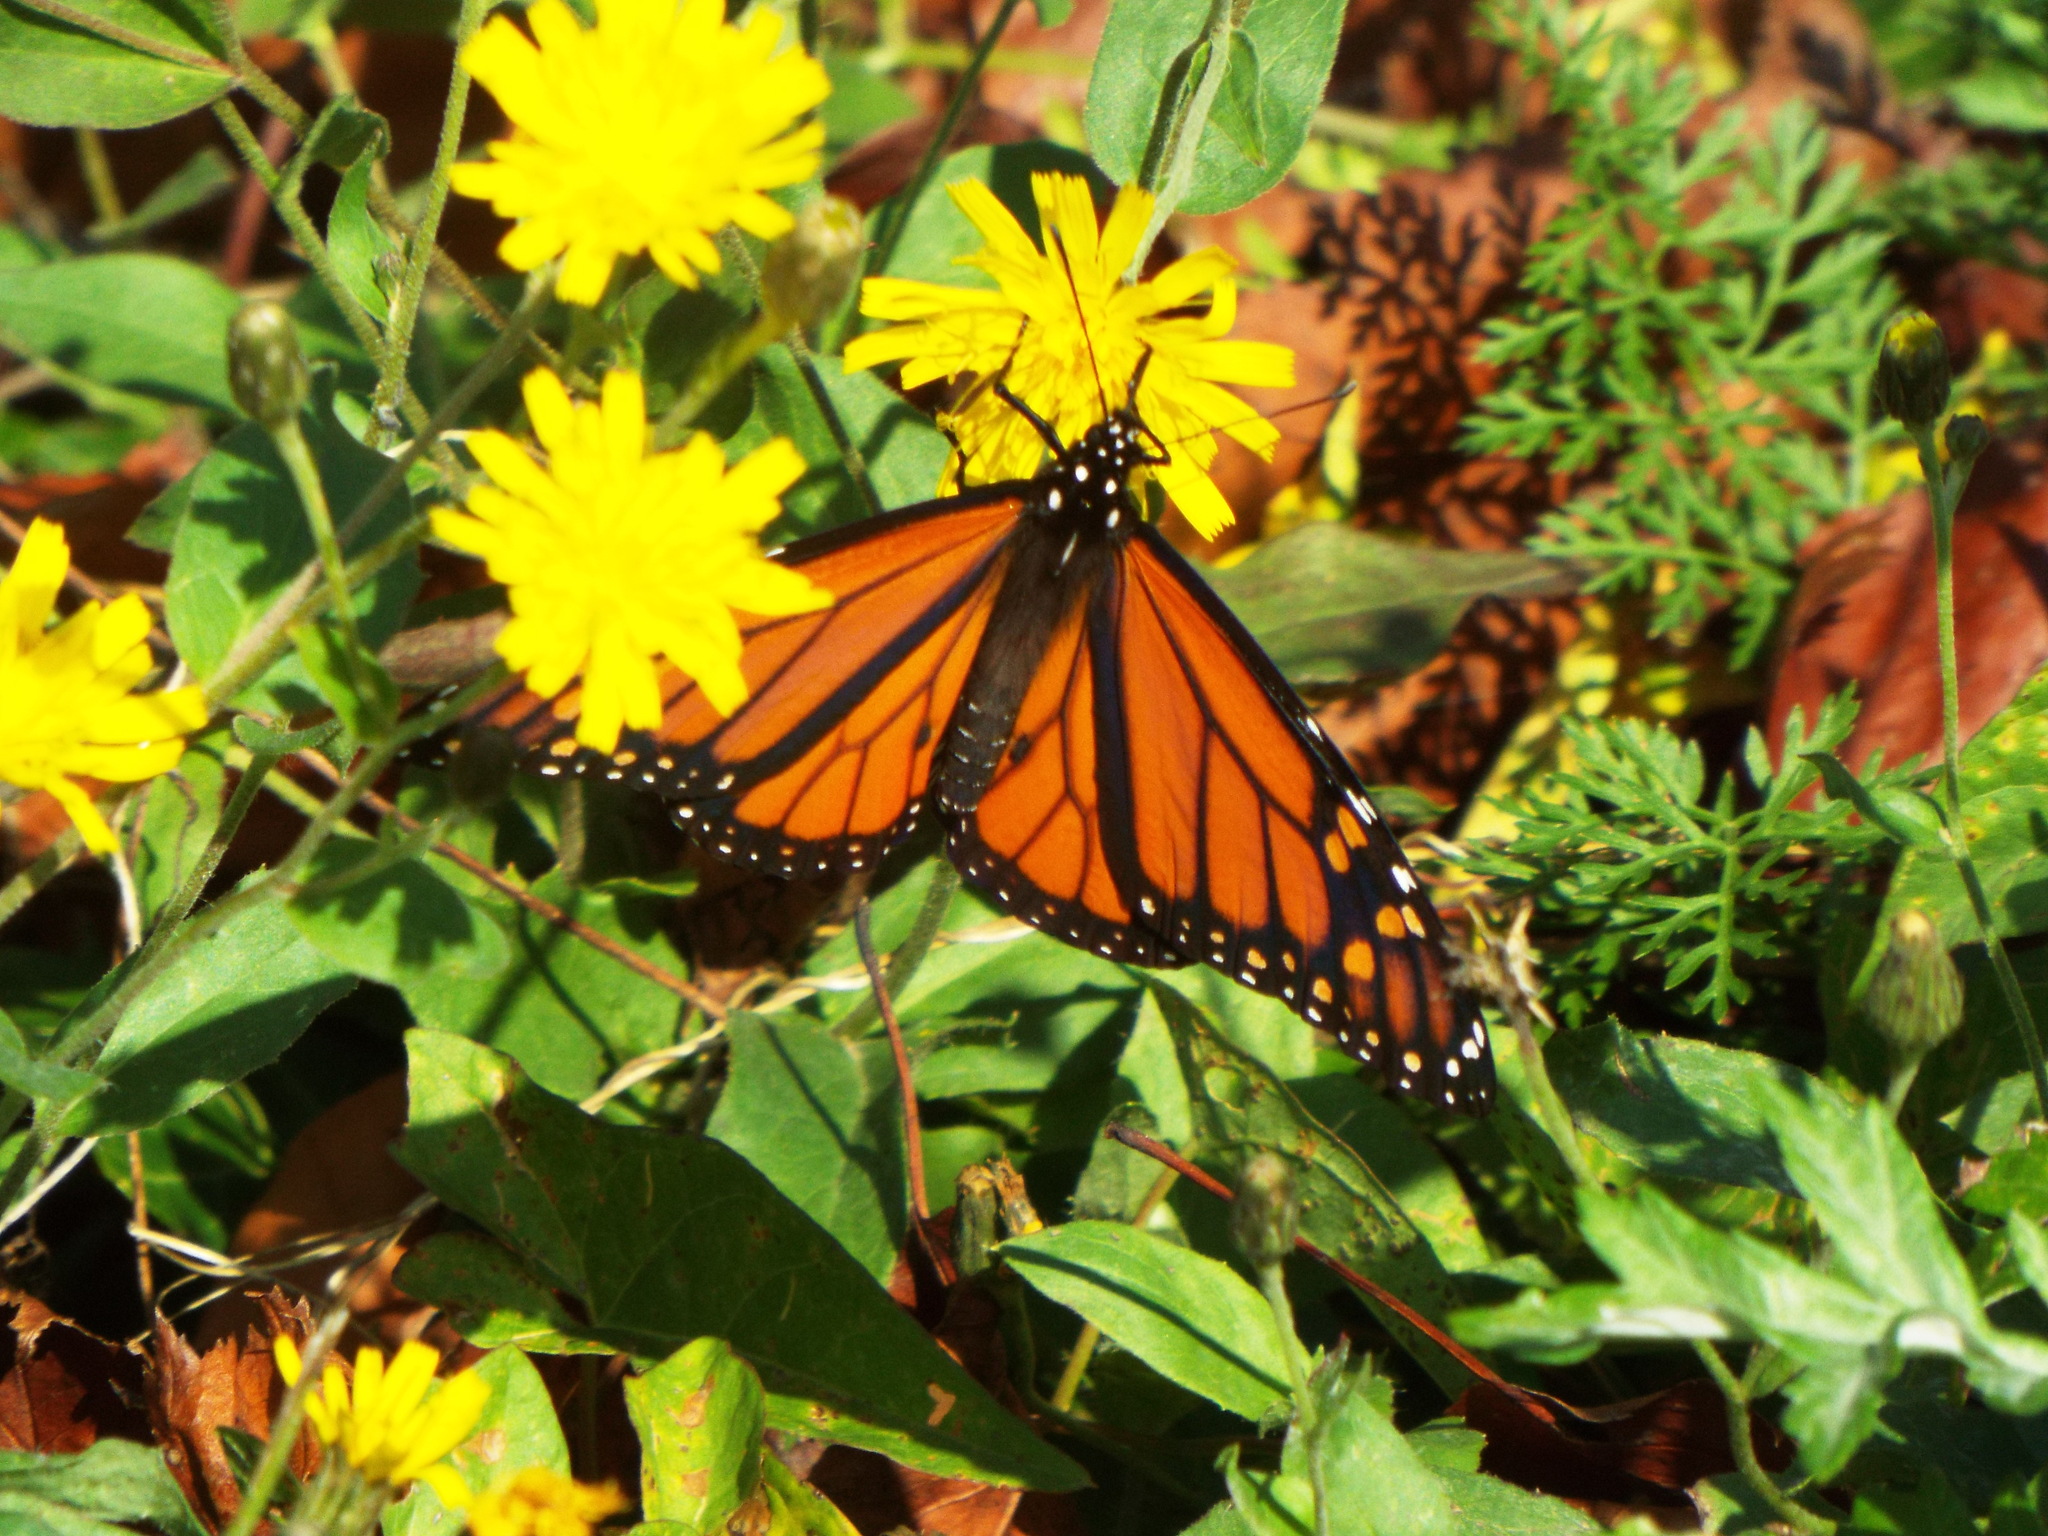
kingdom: Animalia
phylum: Arthropoda
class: Insecta
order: Lepidoptera
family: Nymphalidae
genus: Danaus
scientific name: Danaus plexippus
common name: Monarch
